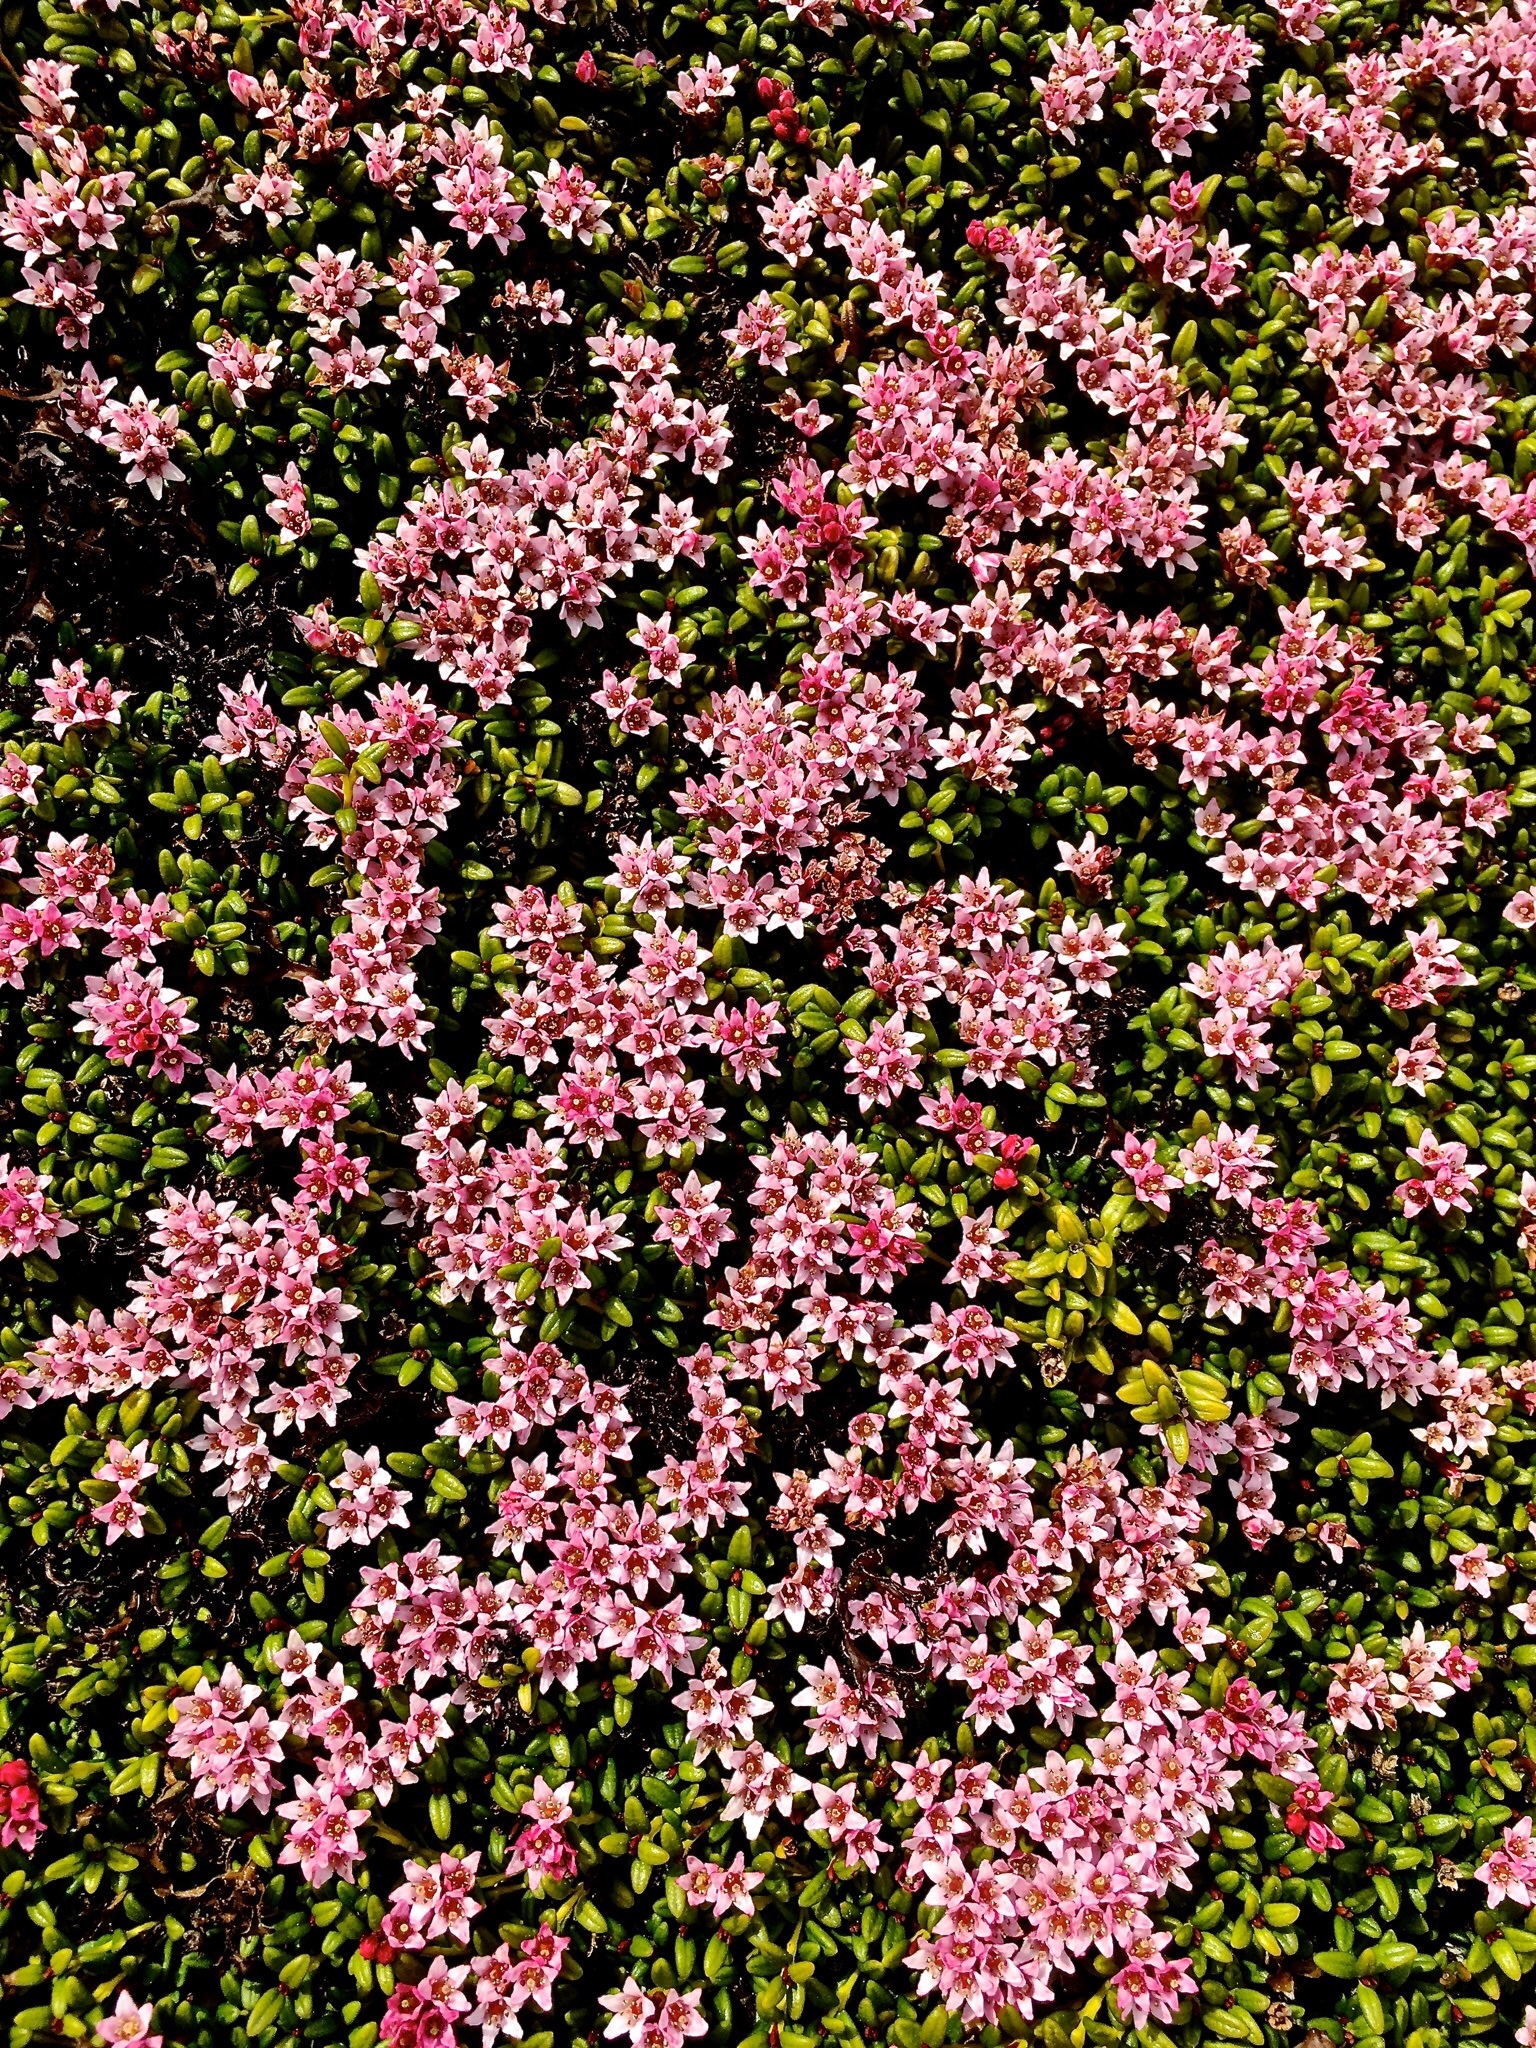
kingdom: Plantae
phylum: Tracheophyta
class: Magnoliopsida
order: Ericales
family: Ericaceae
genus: Kalmia
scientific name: Kalmia procumbens
